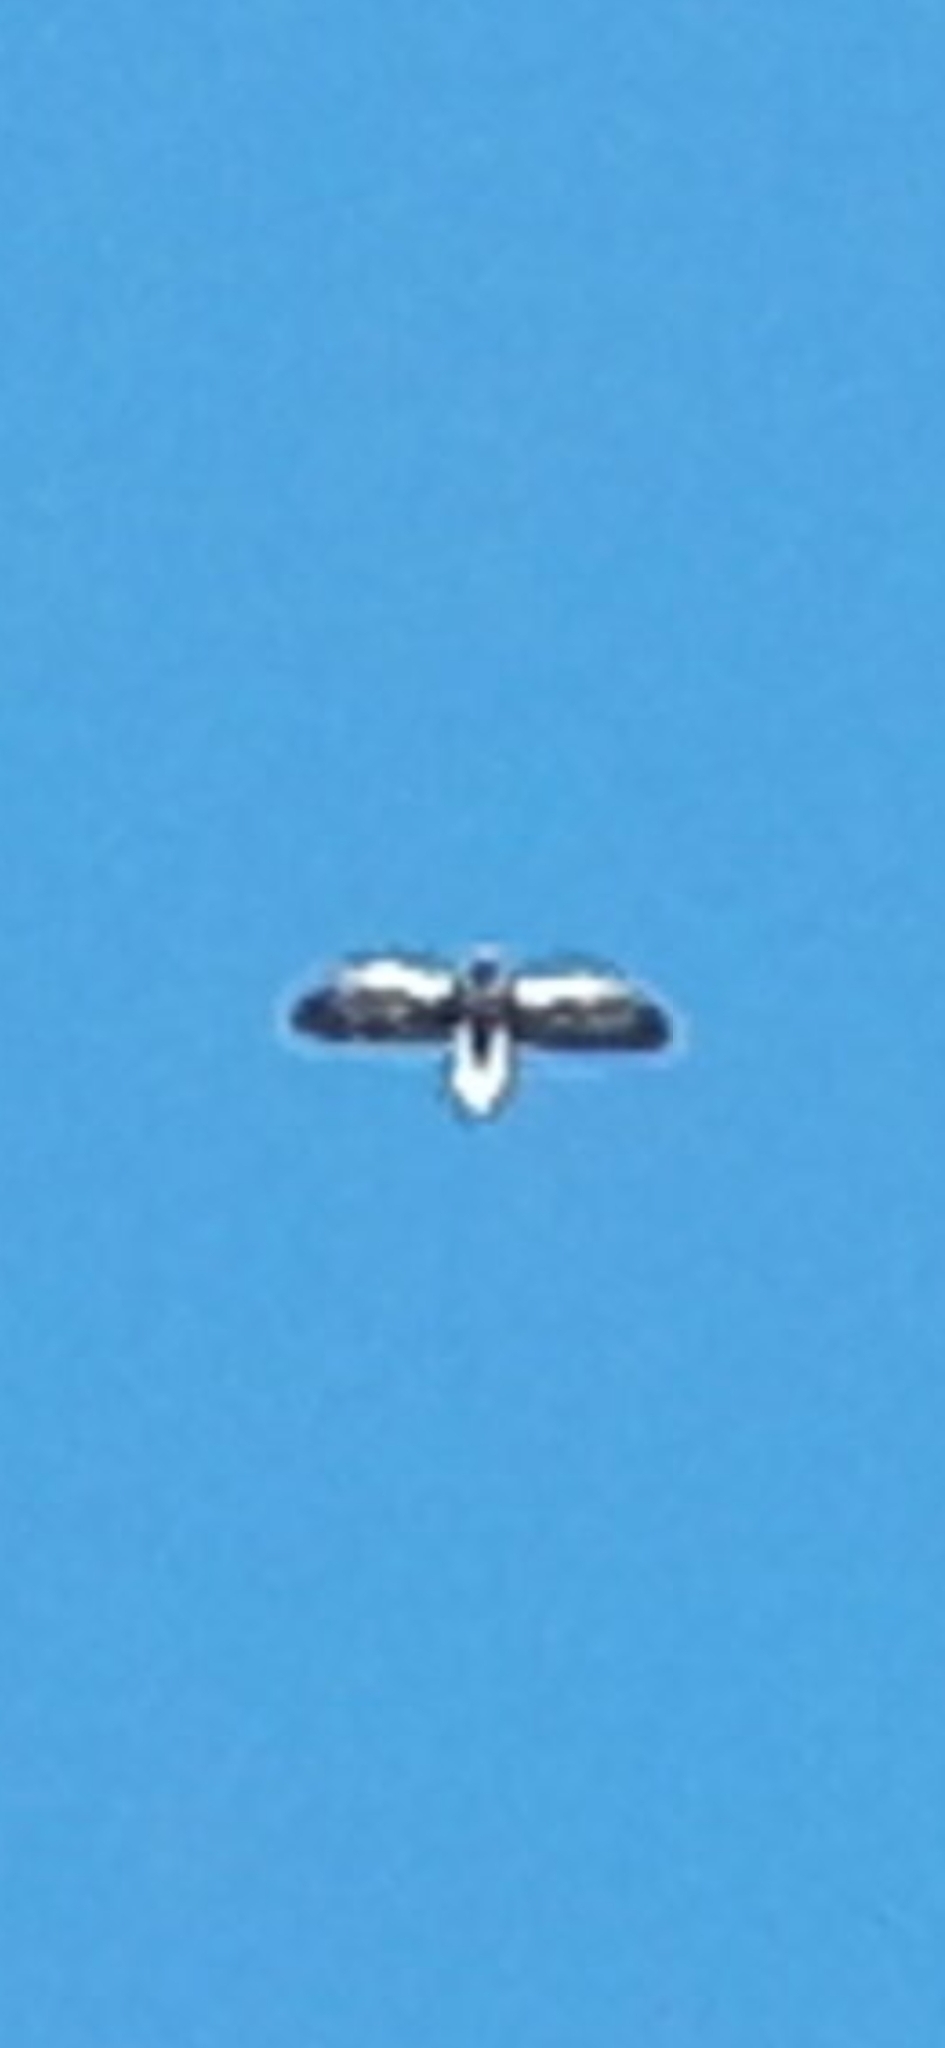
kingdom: Animalia
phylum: Chordata
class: Aves
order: Accipitriformes
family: Accipitridae
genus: Haliaeetus
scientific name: Haliaeetus pelagicus
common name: Steller's sea eagle
